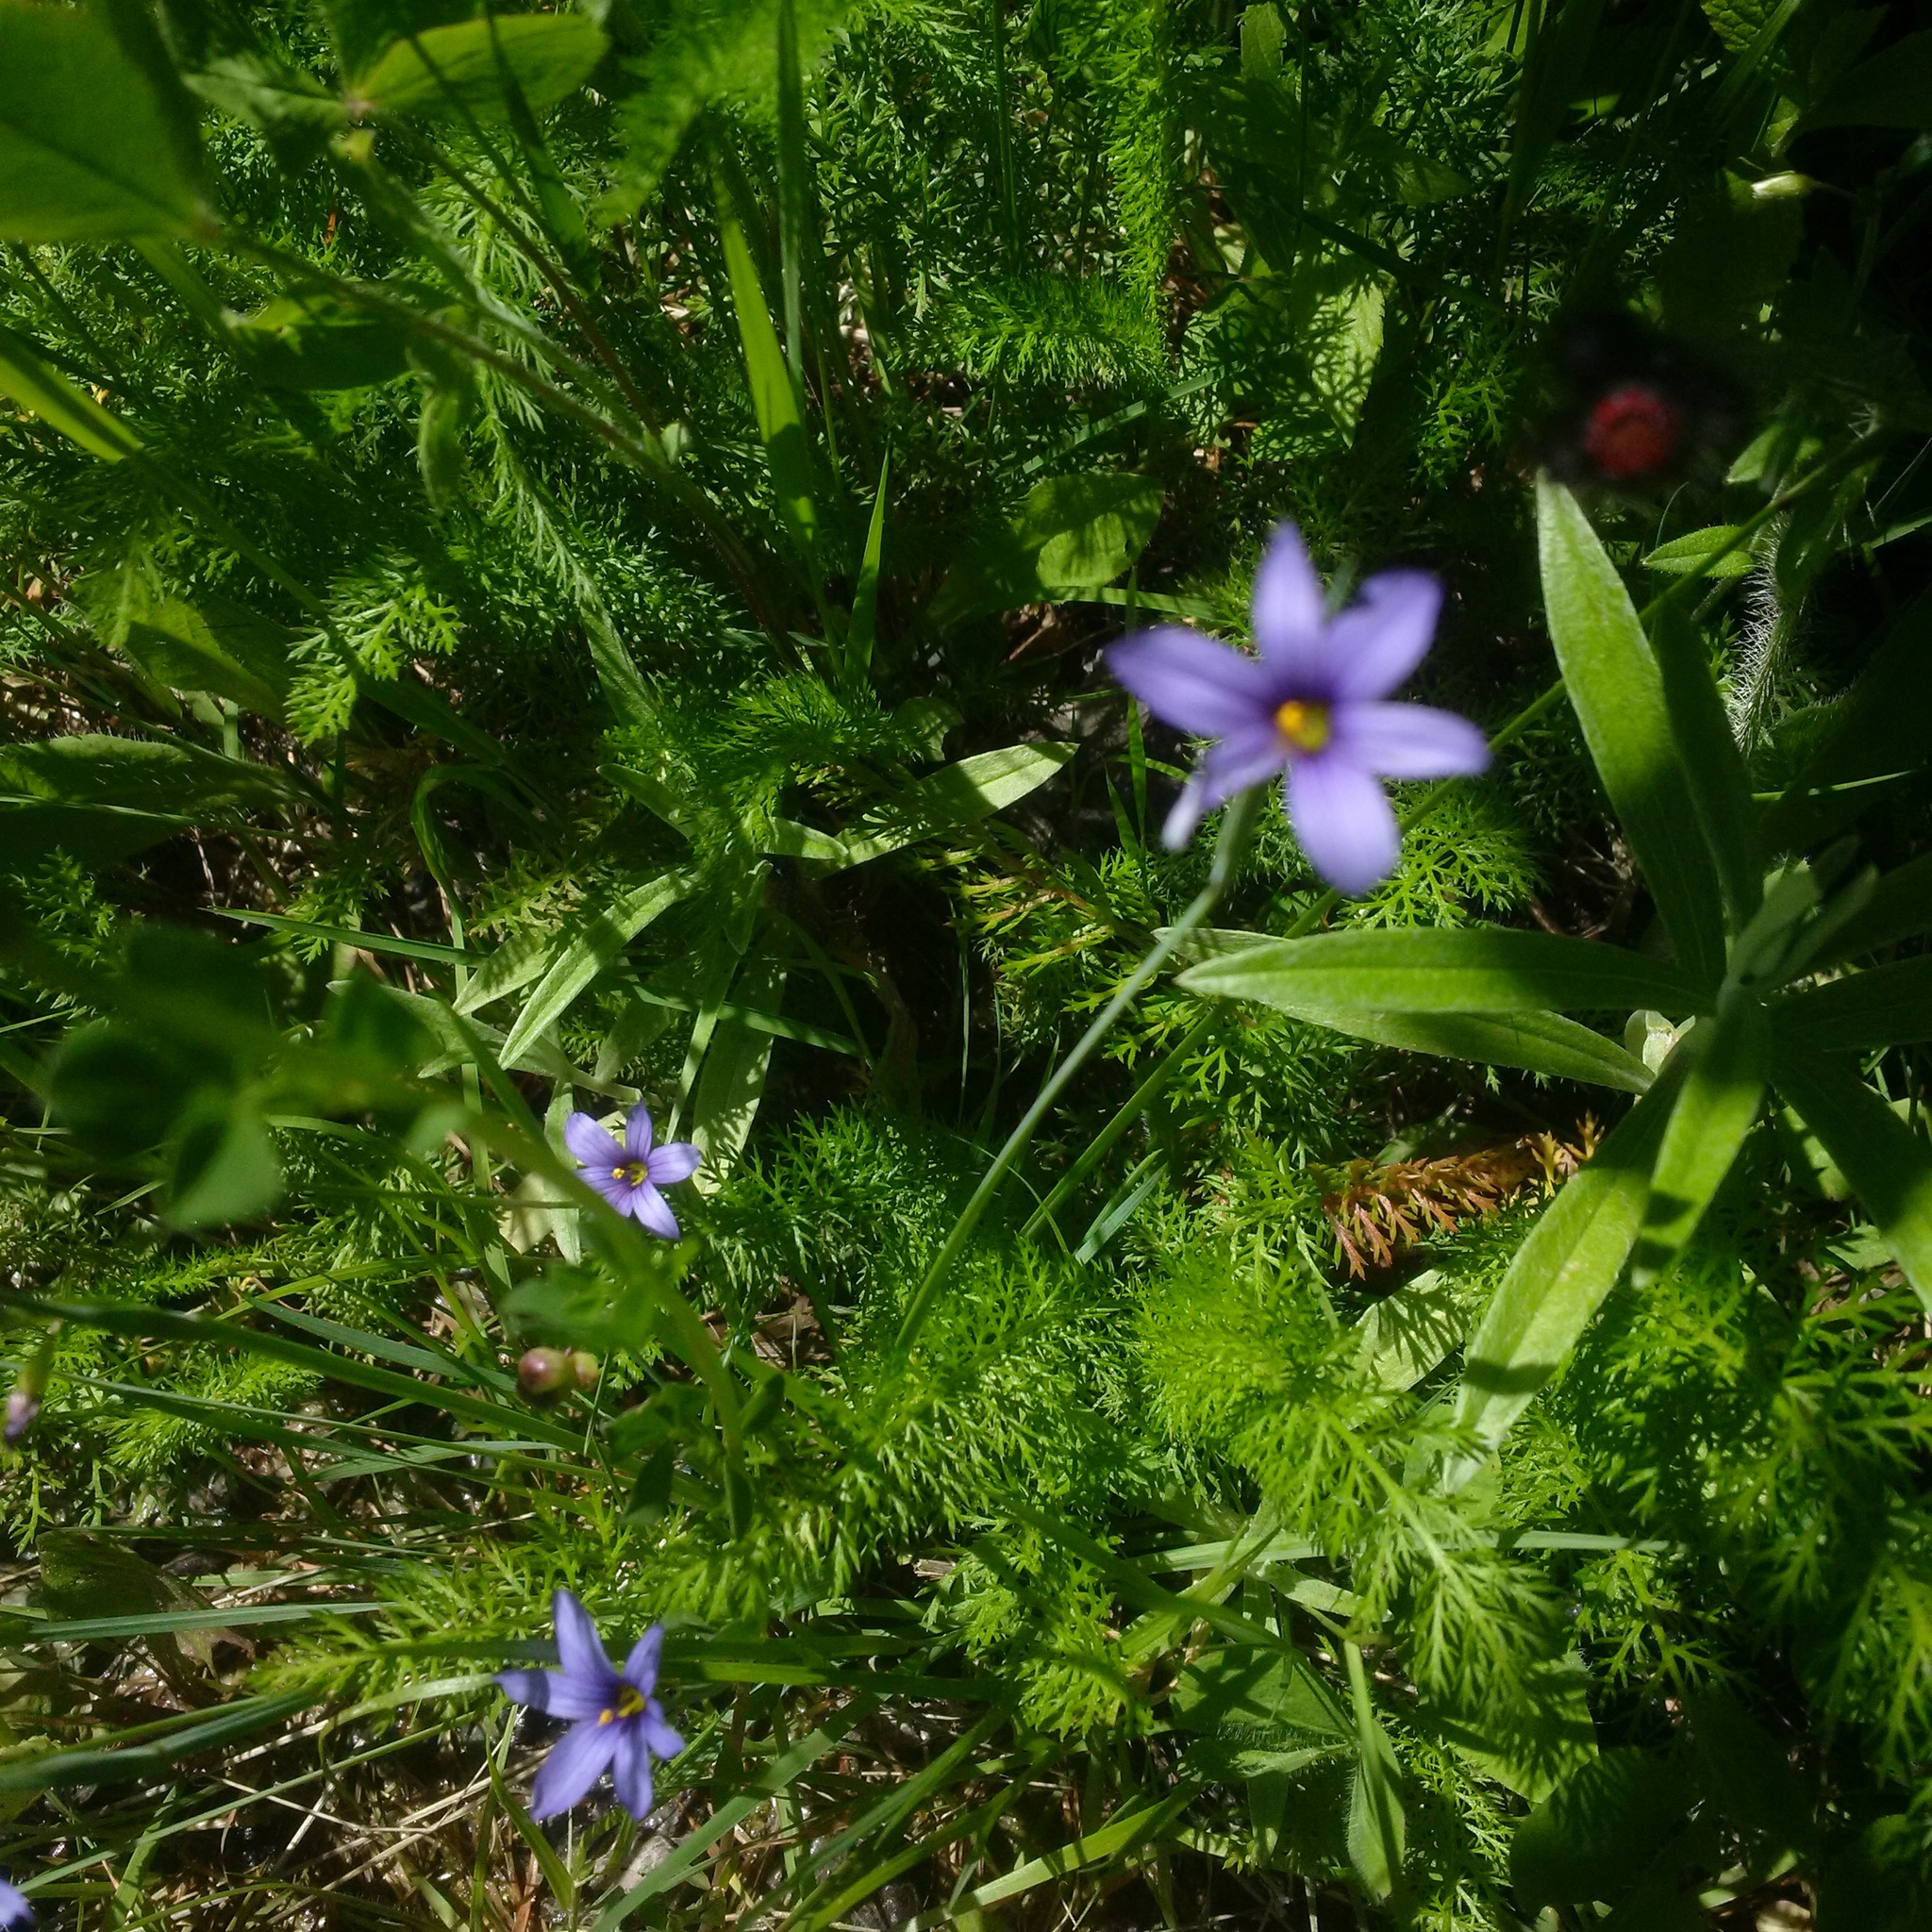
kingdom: Plantae
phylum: Tracheophyta
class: Liliopsida
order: Asparagales
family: Iridaceae
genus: Sisyrinchium
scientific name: Sisyrinchium montanum
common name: American blue-eyed-grass
